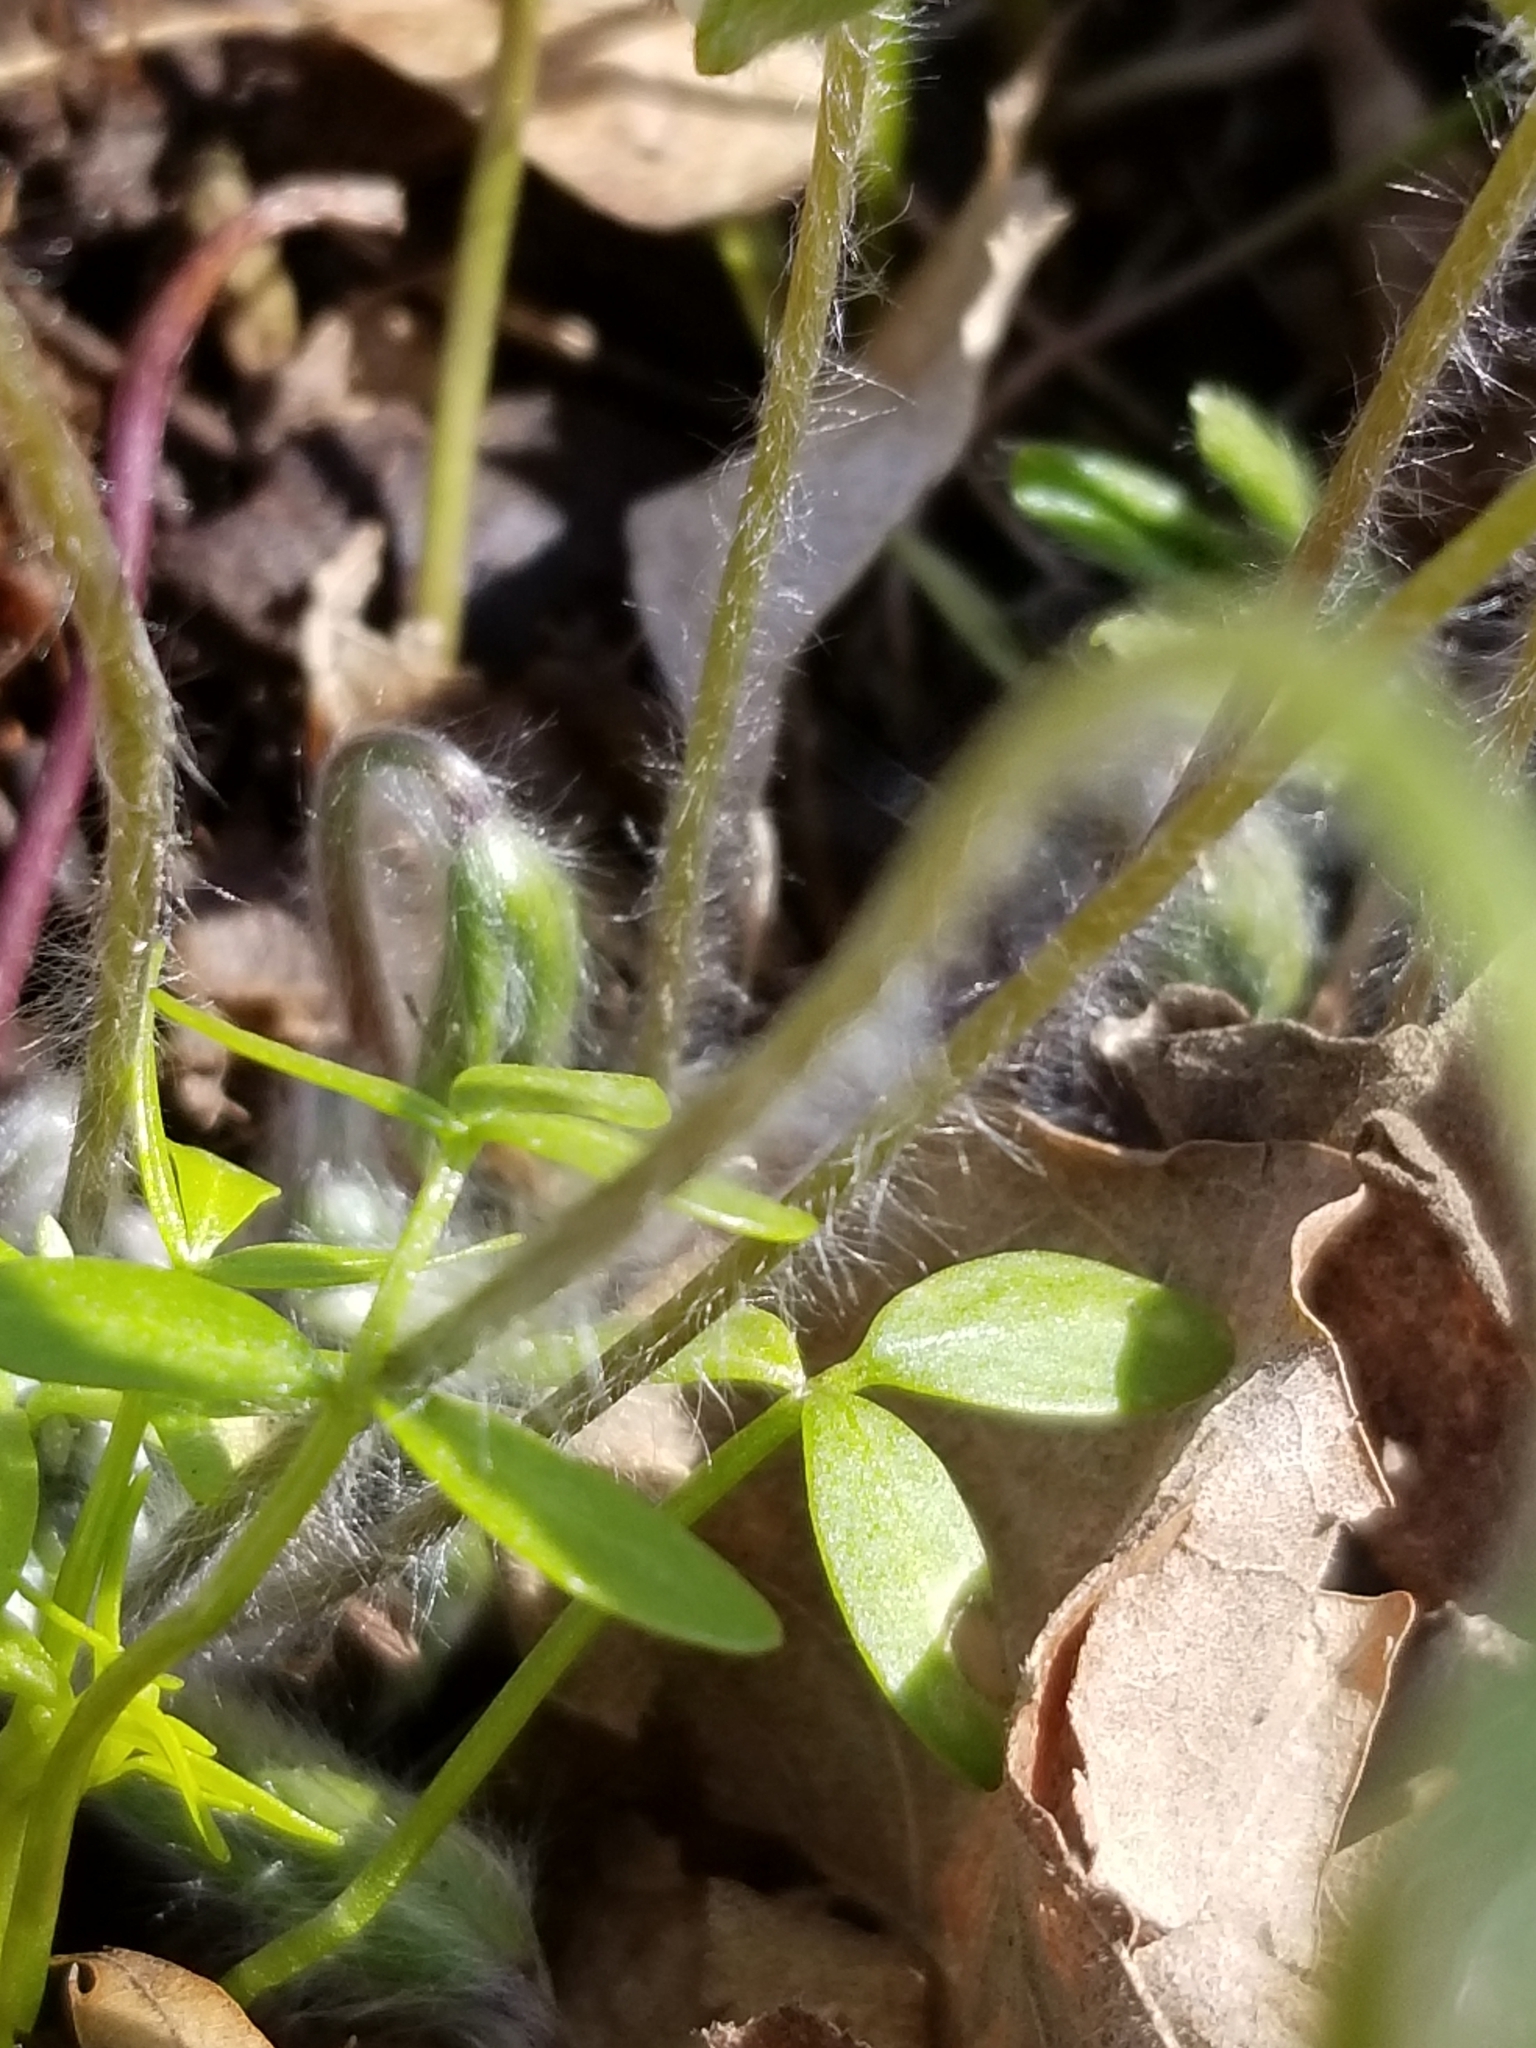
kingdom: Plantae
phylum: Tracheophyta
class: Magnoliopsida
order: Ranunculales
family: Ranunculaceae
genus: Hepatica
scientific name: Hepatica acutiloba
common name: Sharp-lobed hepatica
